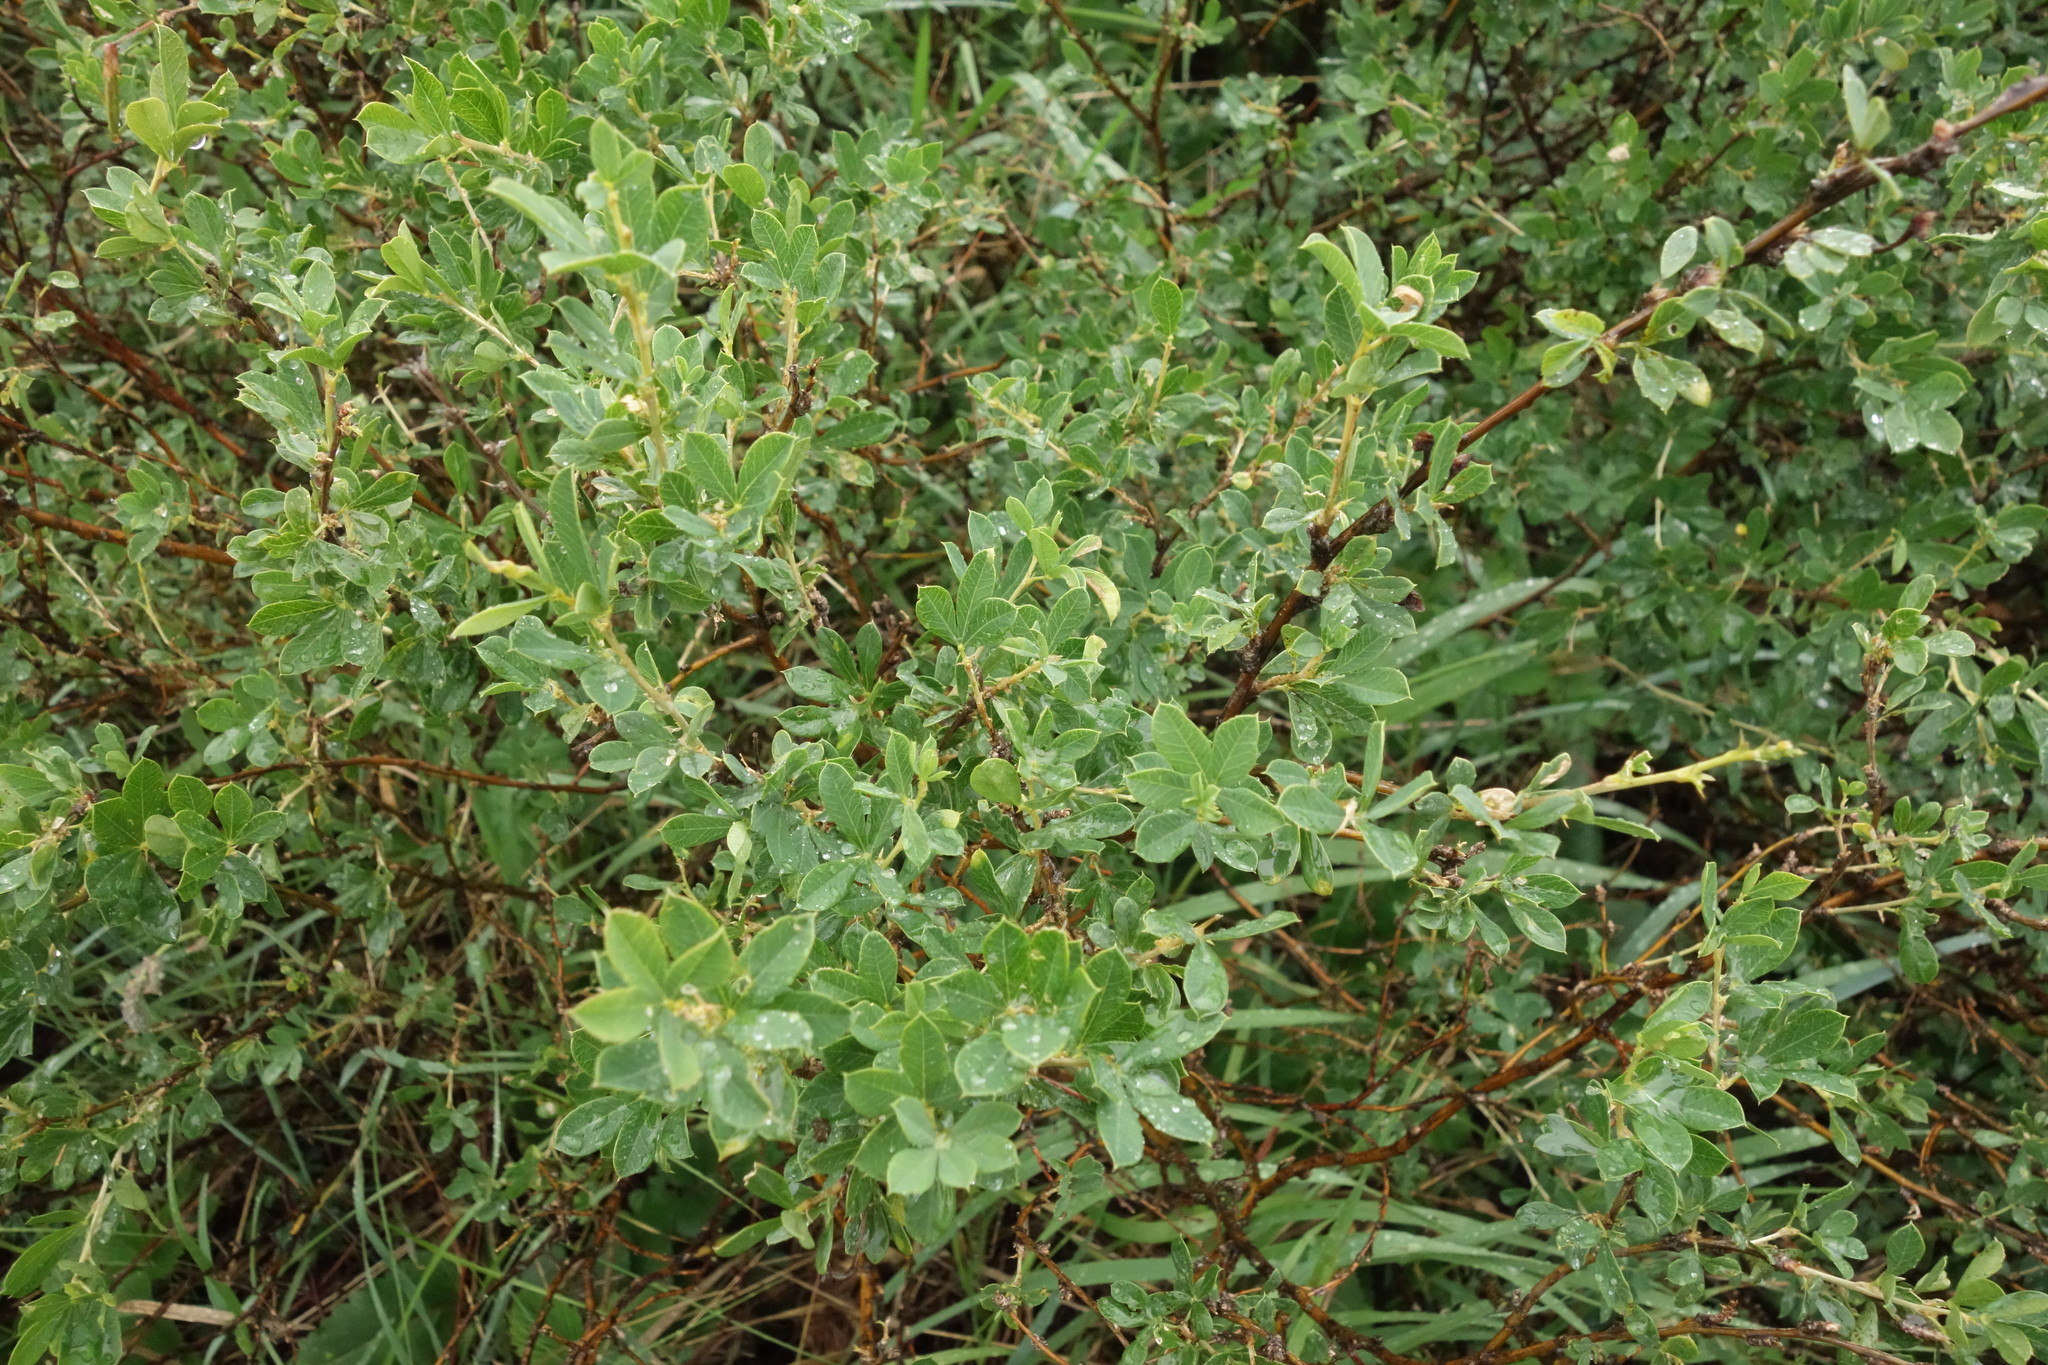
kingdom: Plantae
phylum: Tracheophyta
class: Magnoliopsida
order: Fabales
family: Fabaceae
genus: Caragana
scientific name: Caragana frutex
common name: Russian peashrub
